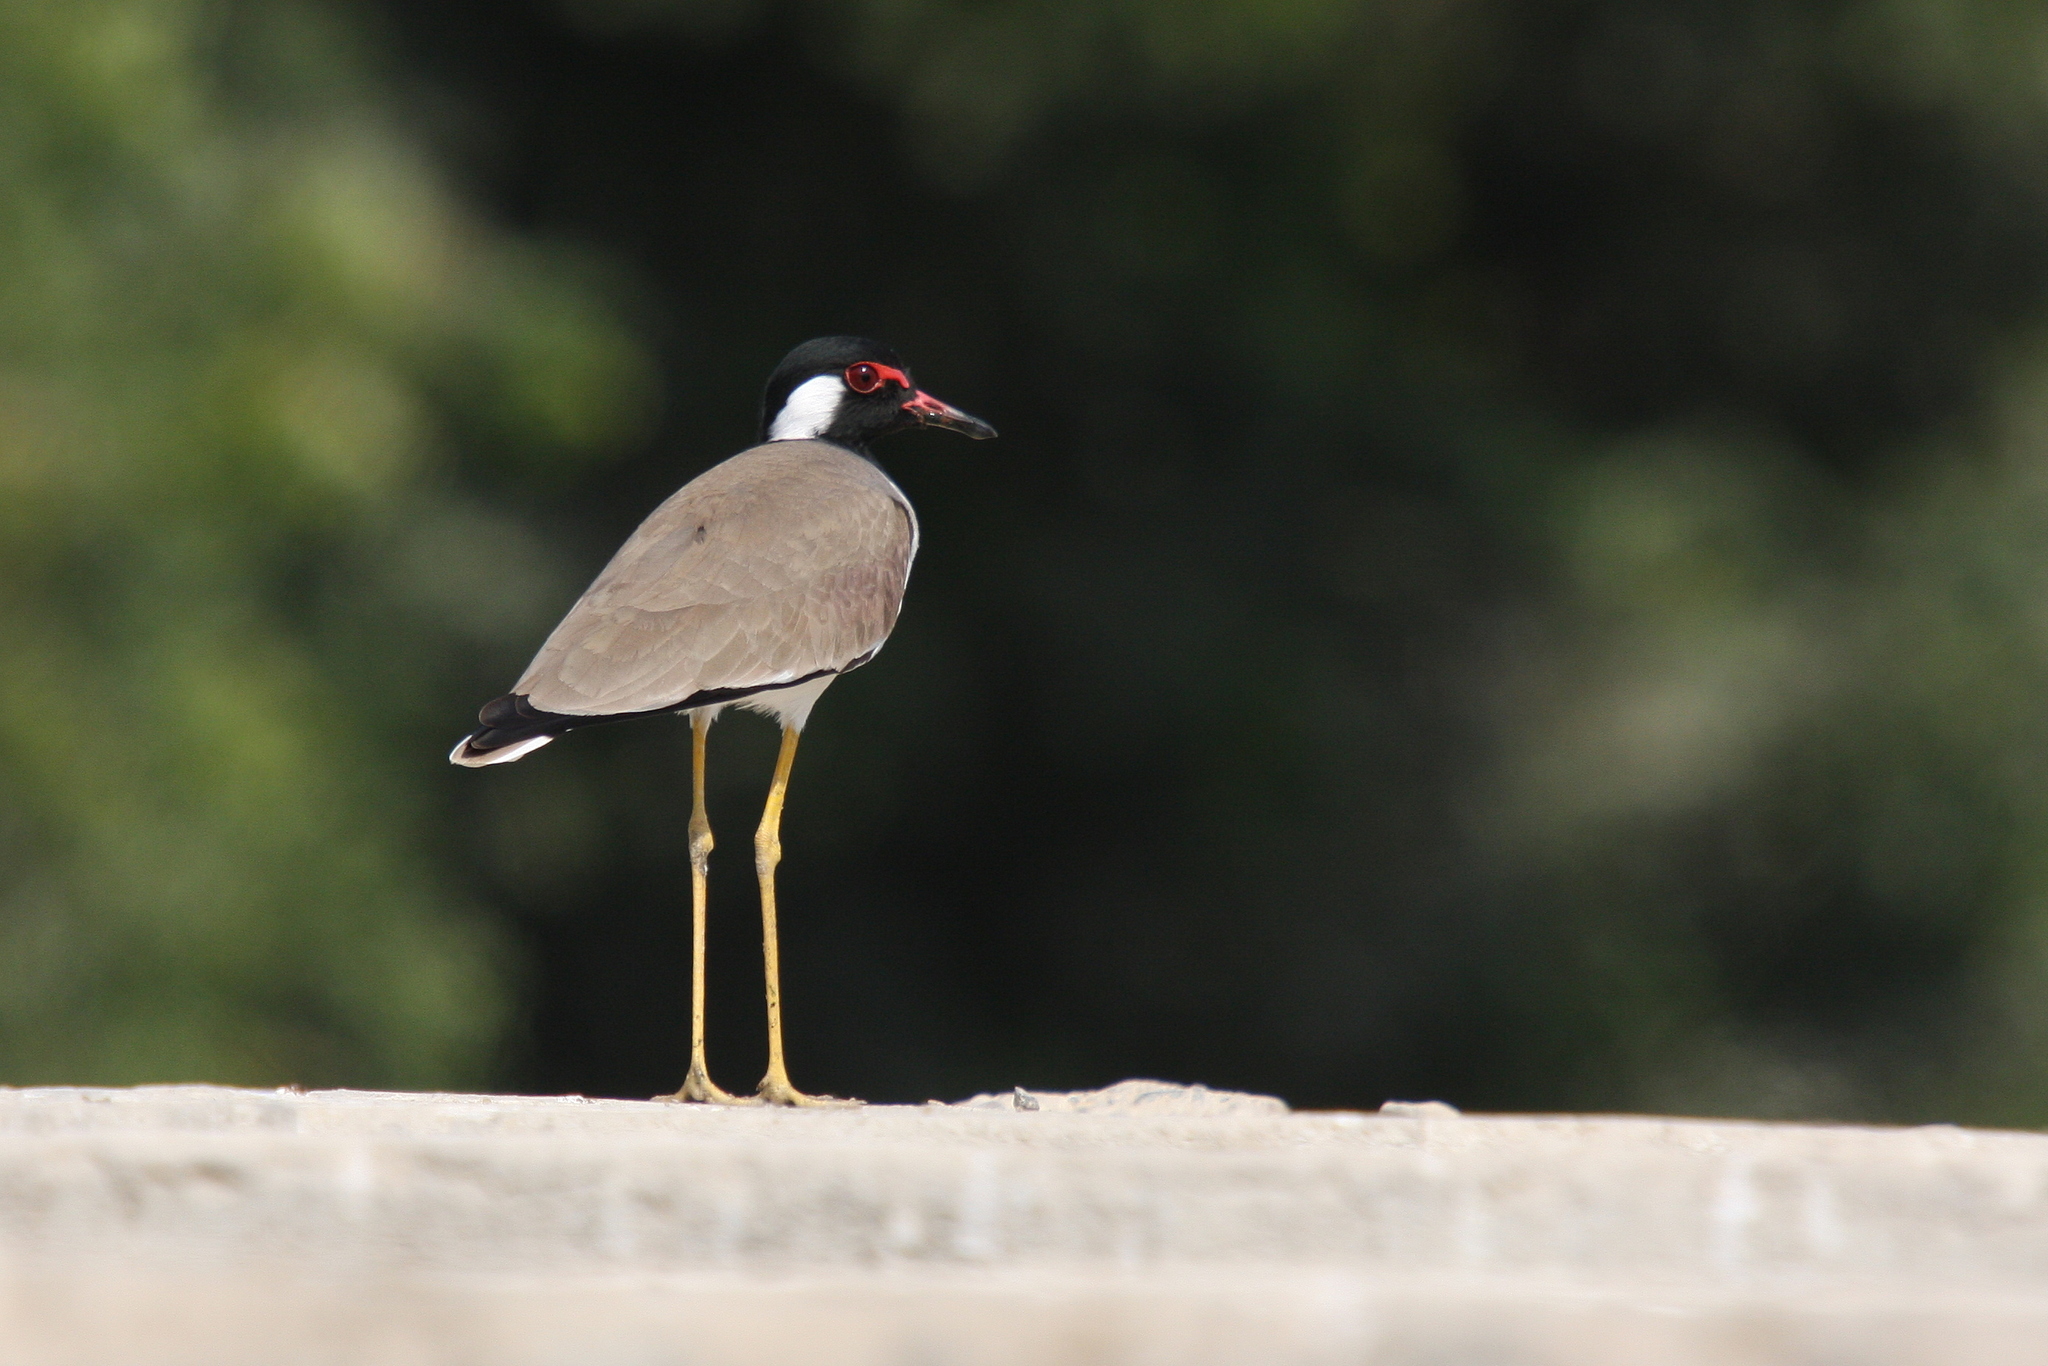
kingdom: Animalia
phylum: Chordata
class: Aves
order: Charadriiformes
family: Charadriidae
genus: Vanellus
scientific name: Vanellus indicus
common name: Red-wattled lapwing
